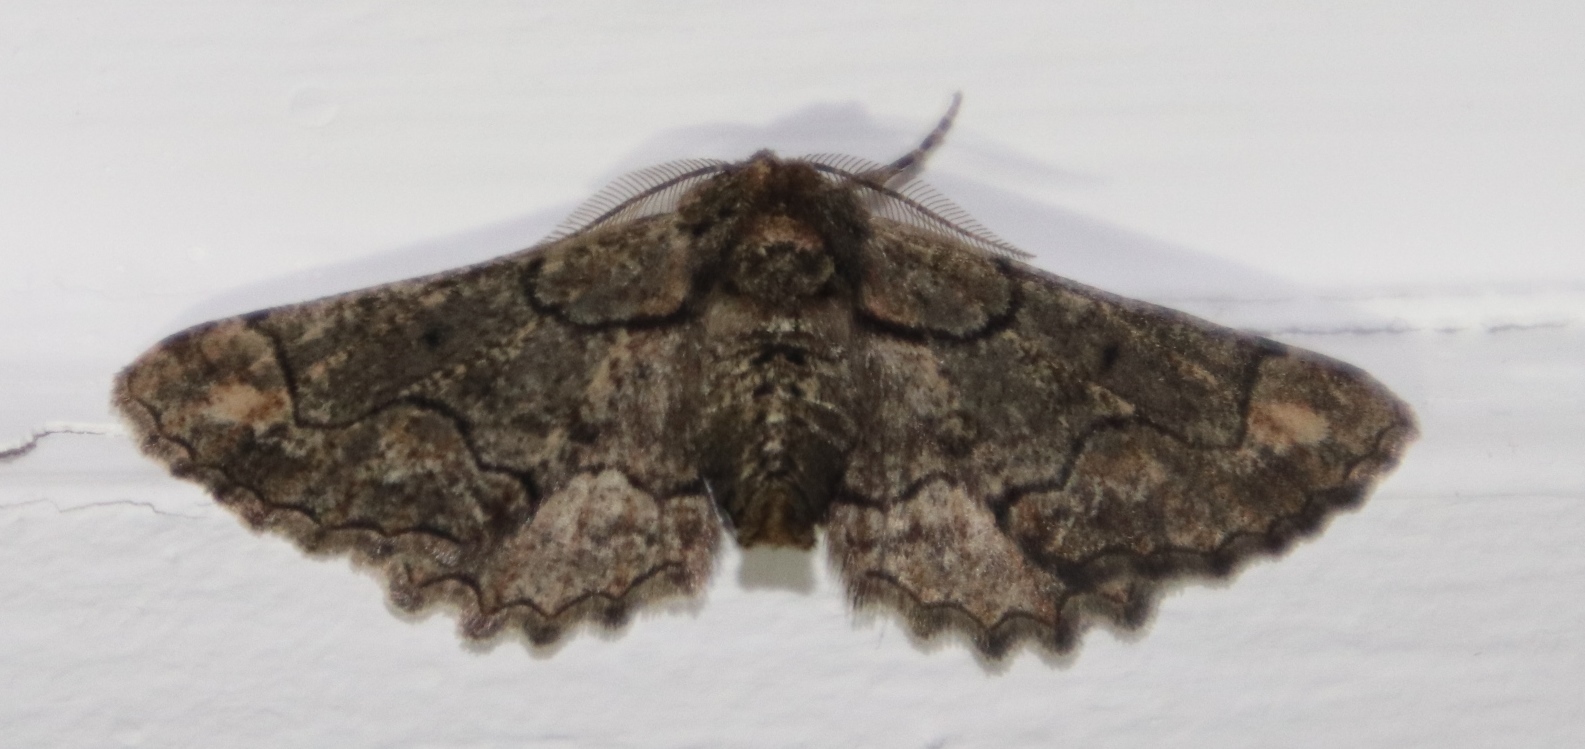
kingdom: Animalia
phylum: Arthropoda
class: Insecta
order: Lepidoptera
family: Geometridae
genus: Omphalucha
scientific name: Omphalucha indeflexa
